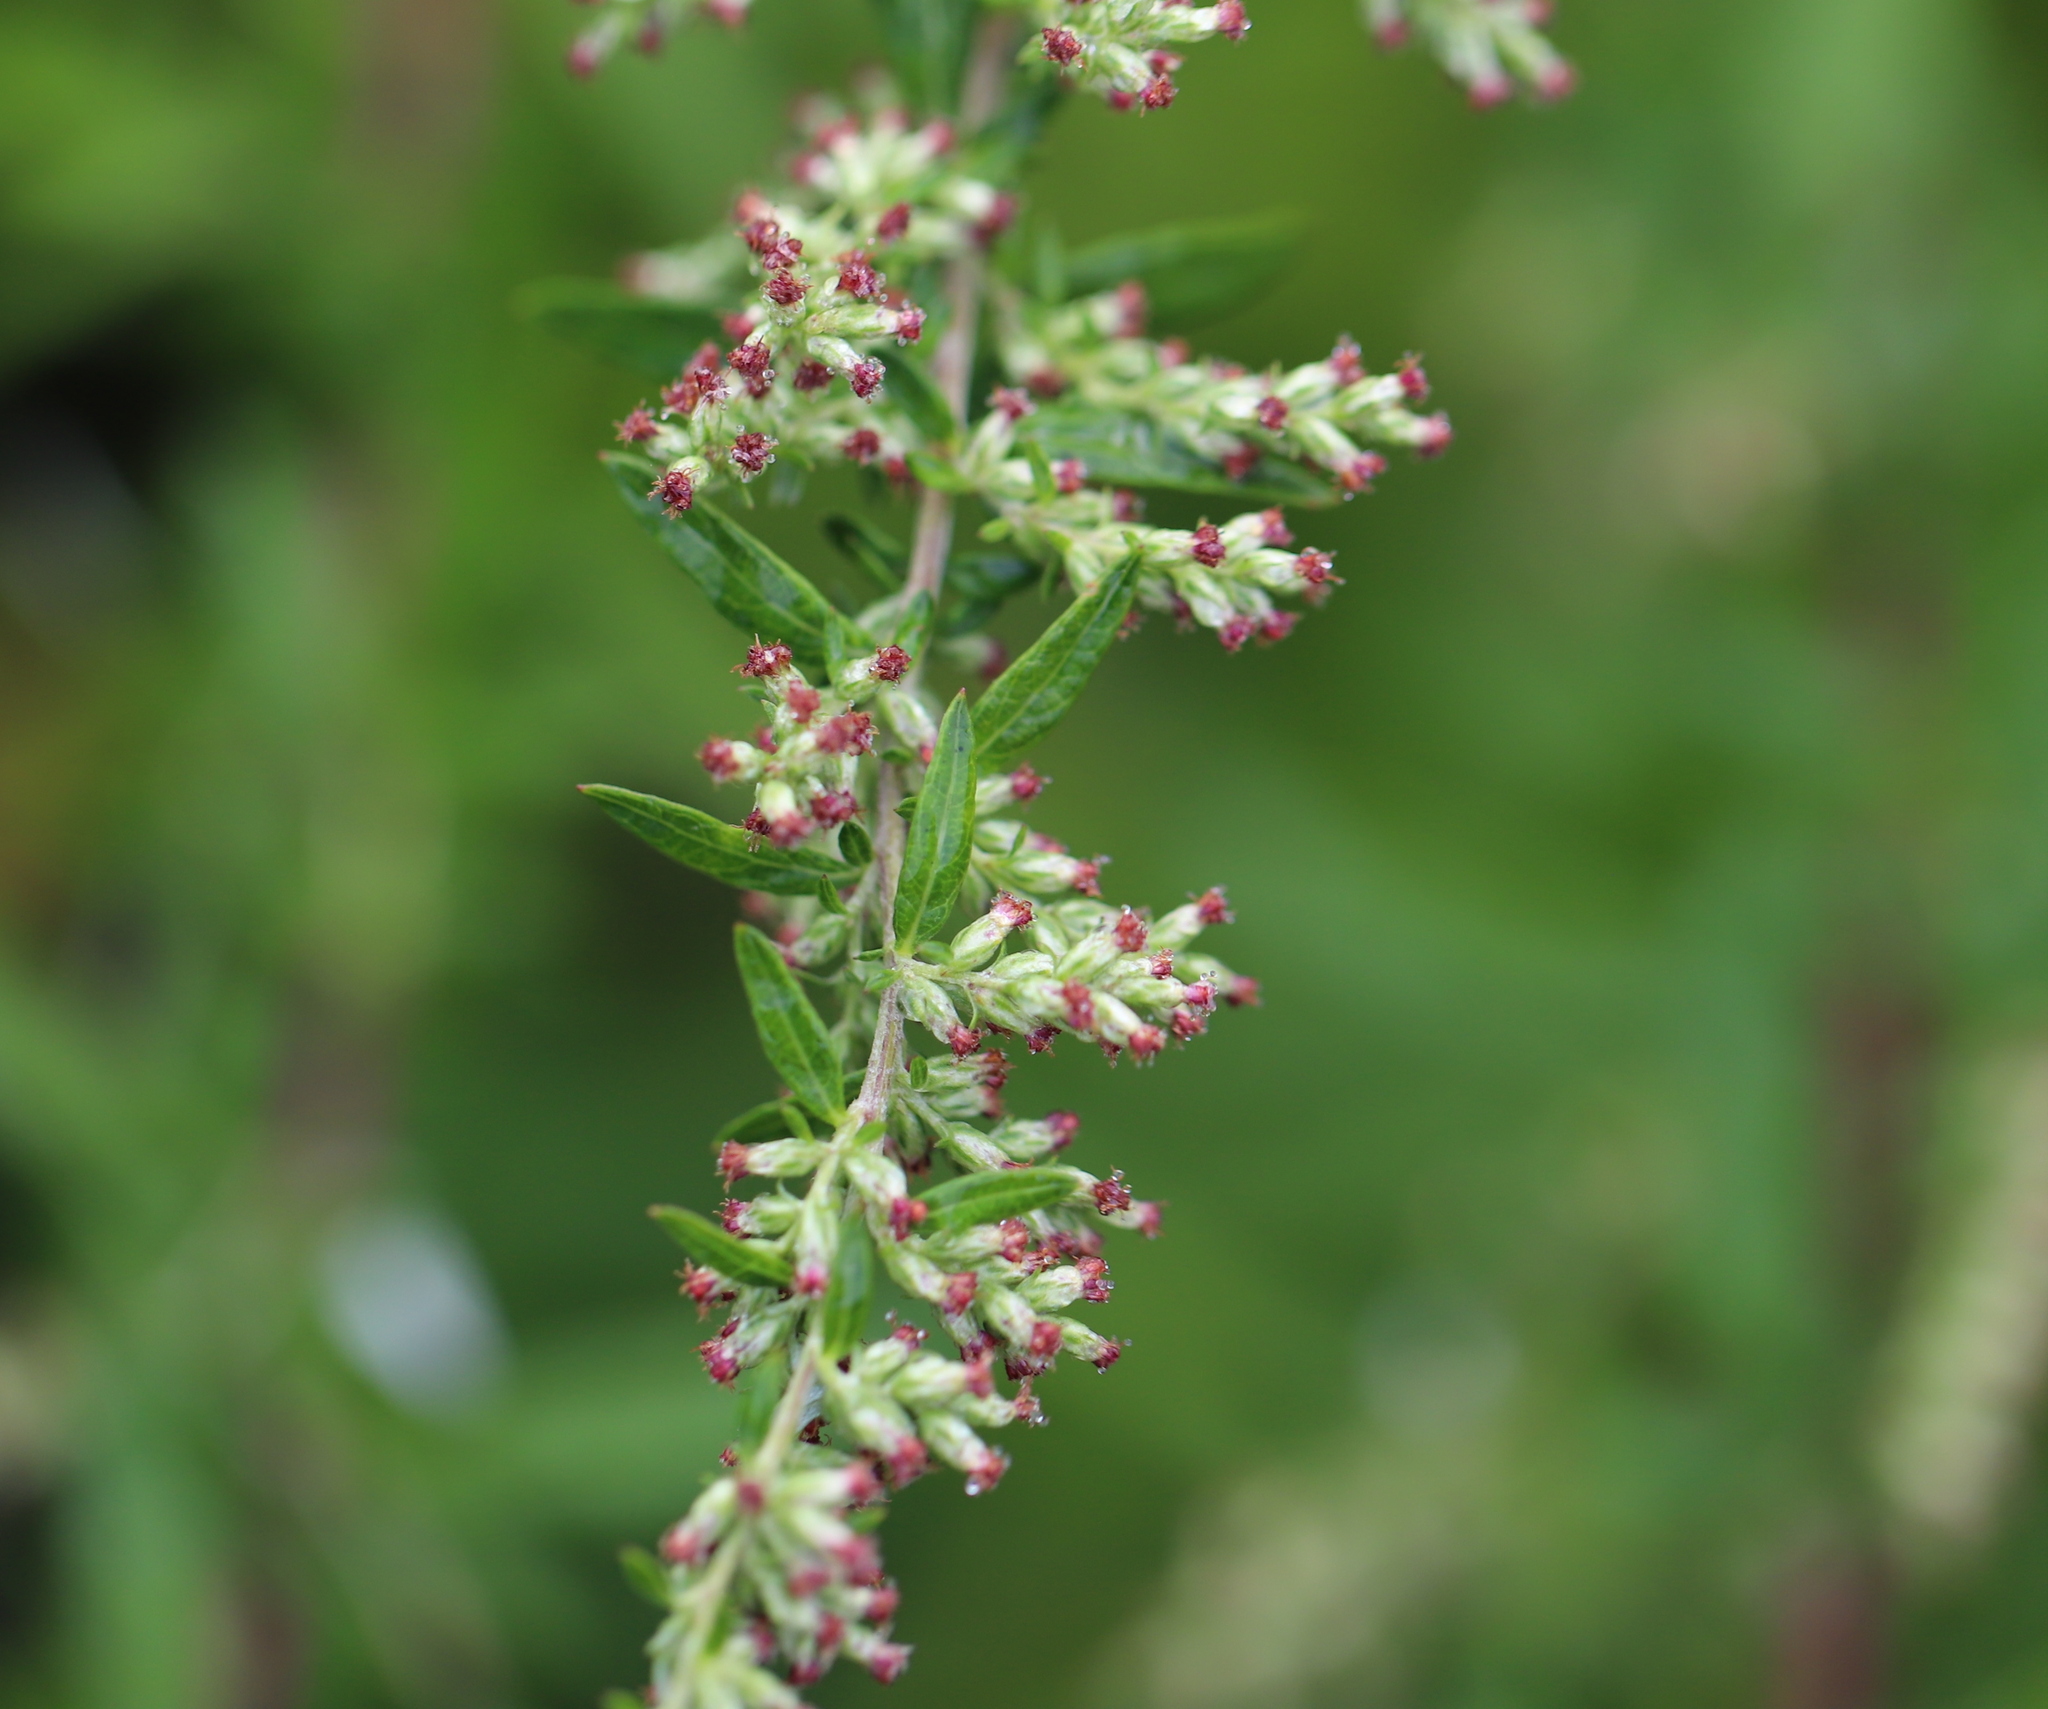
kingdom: Plantae
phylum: Tracheophyta
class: Magnoliopsida
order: Asterales
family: Asteraceae
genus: Artemisia
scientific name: Artemisia vulgaris
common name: Mugwort
